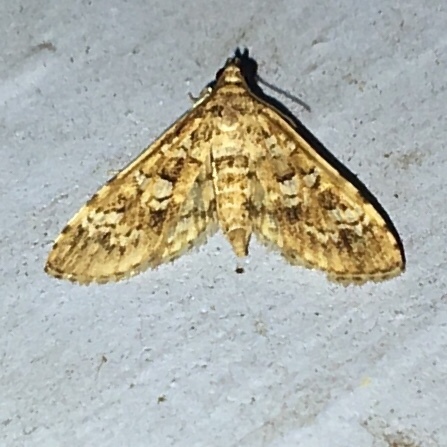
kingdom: Animalia
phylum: Arthropoda
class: Insecta
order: Lepidoptera
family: Crambidae
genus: Samea
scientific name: Samea multiplicalis
